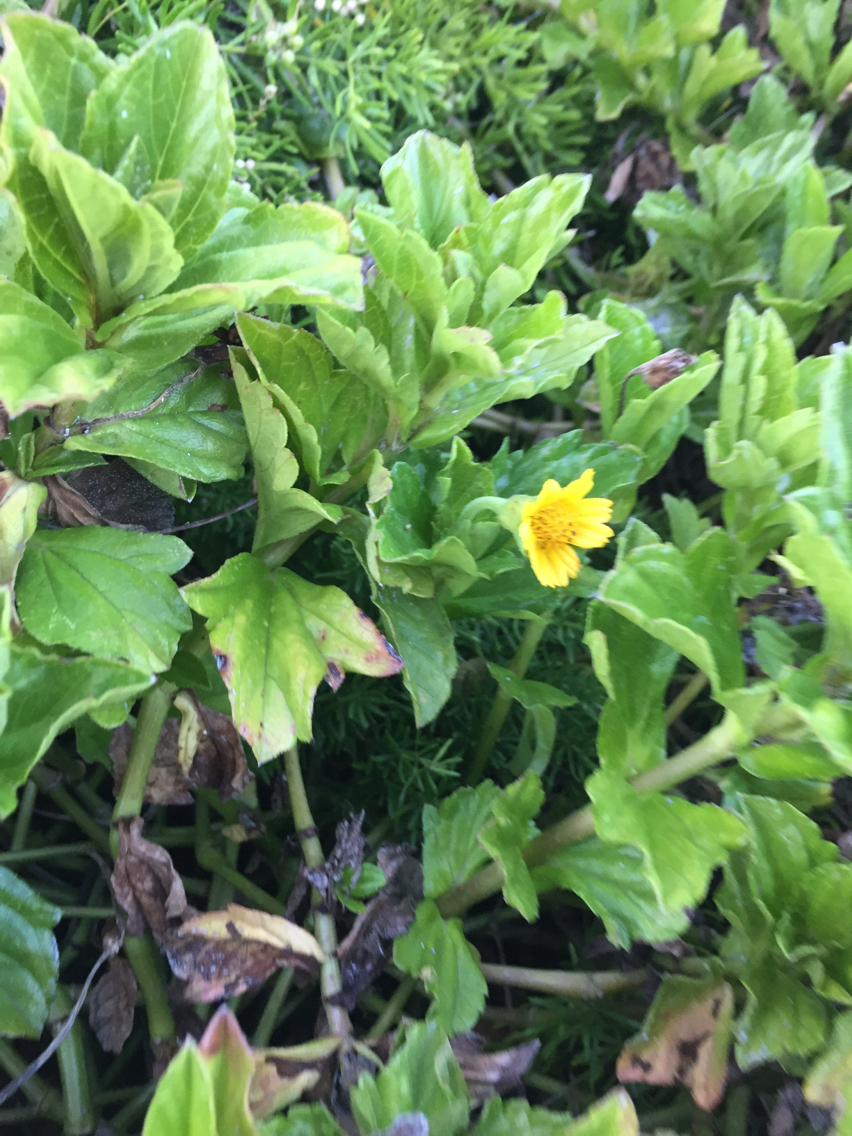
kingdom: Plantae
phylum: Tracheophyta
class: Magnoliopsida
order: Asterales
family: Asteraceae
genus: Sphagneticola
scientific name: Sphagneticola trilobata
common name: Bay biscayne creeping-oxeye
